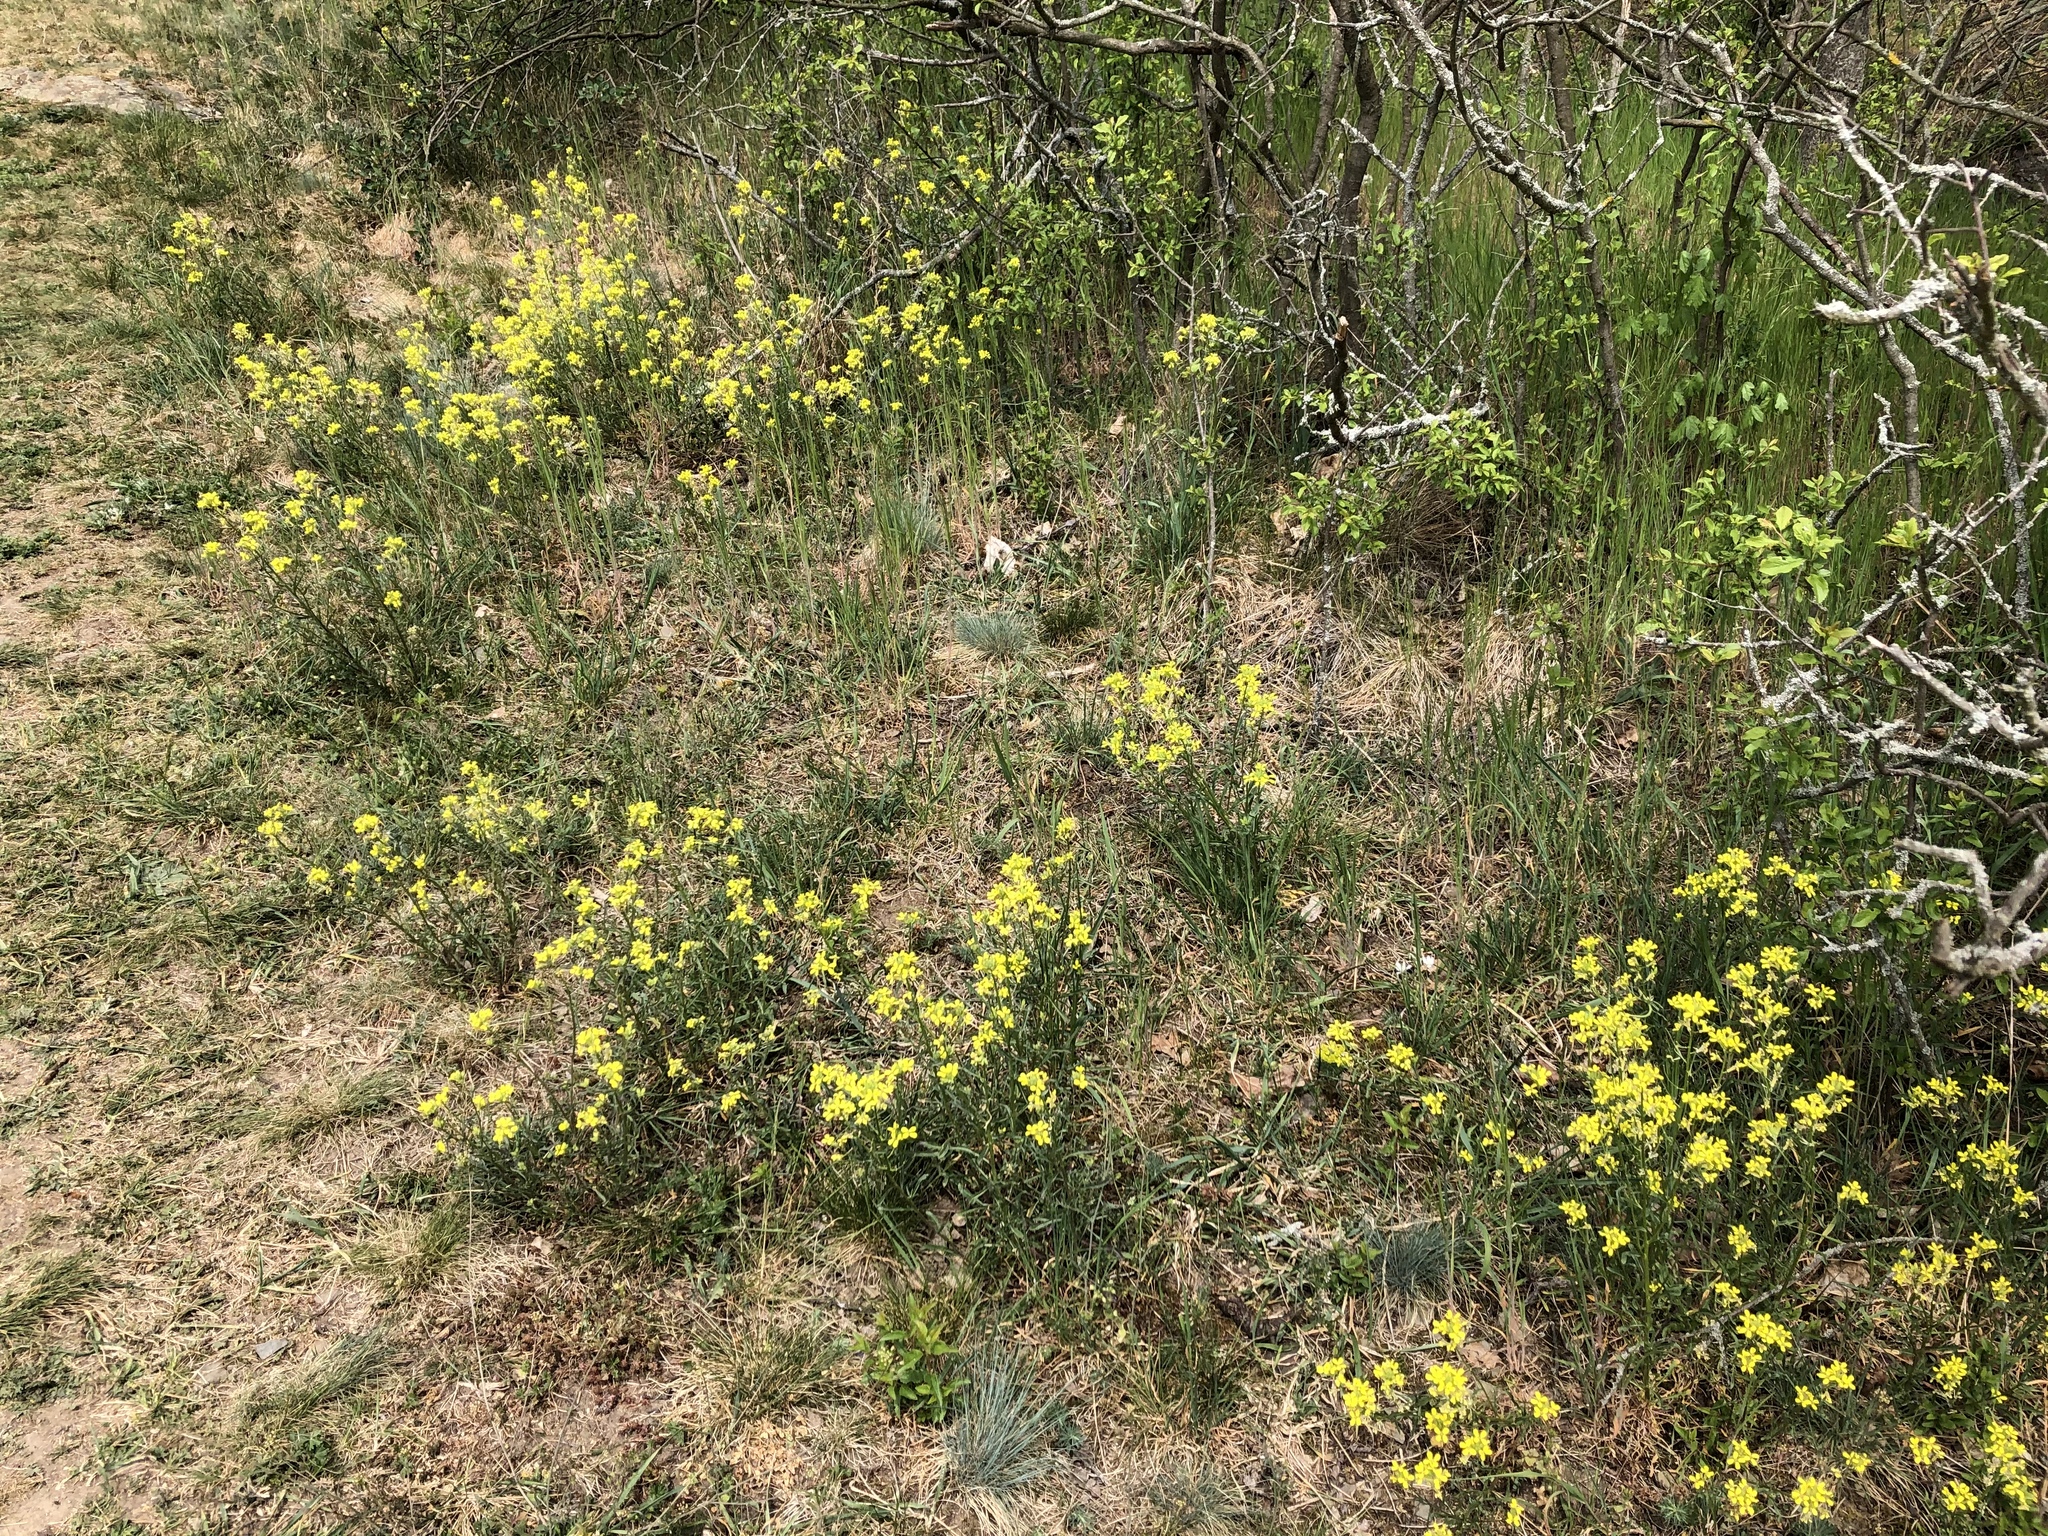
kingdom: Plantae
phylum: Tracheophyta
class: Magnoliopsida
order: Brassicales
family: Brassicaceae
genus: Erysimum
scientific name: Erysimum crepidifolium
